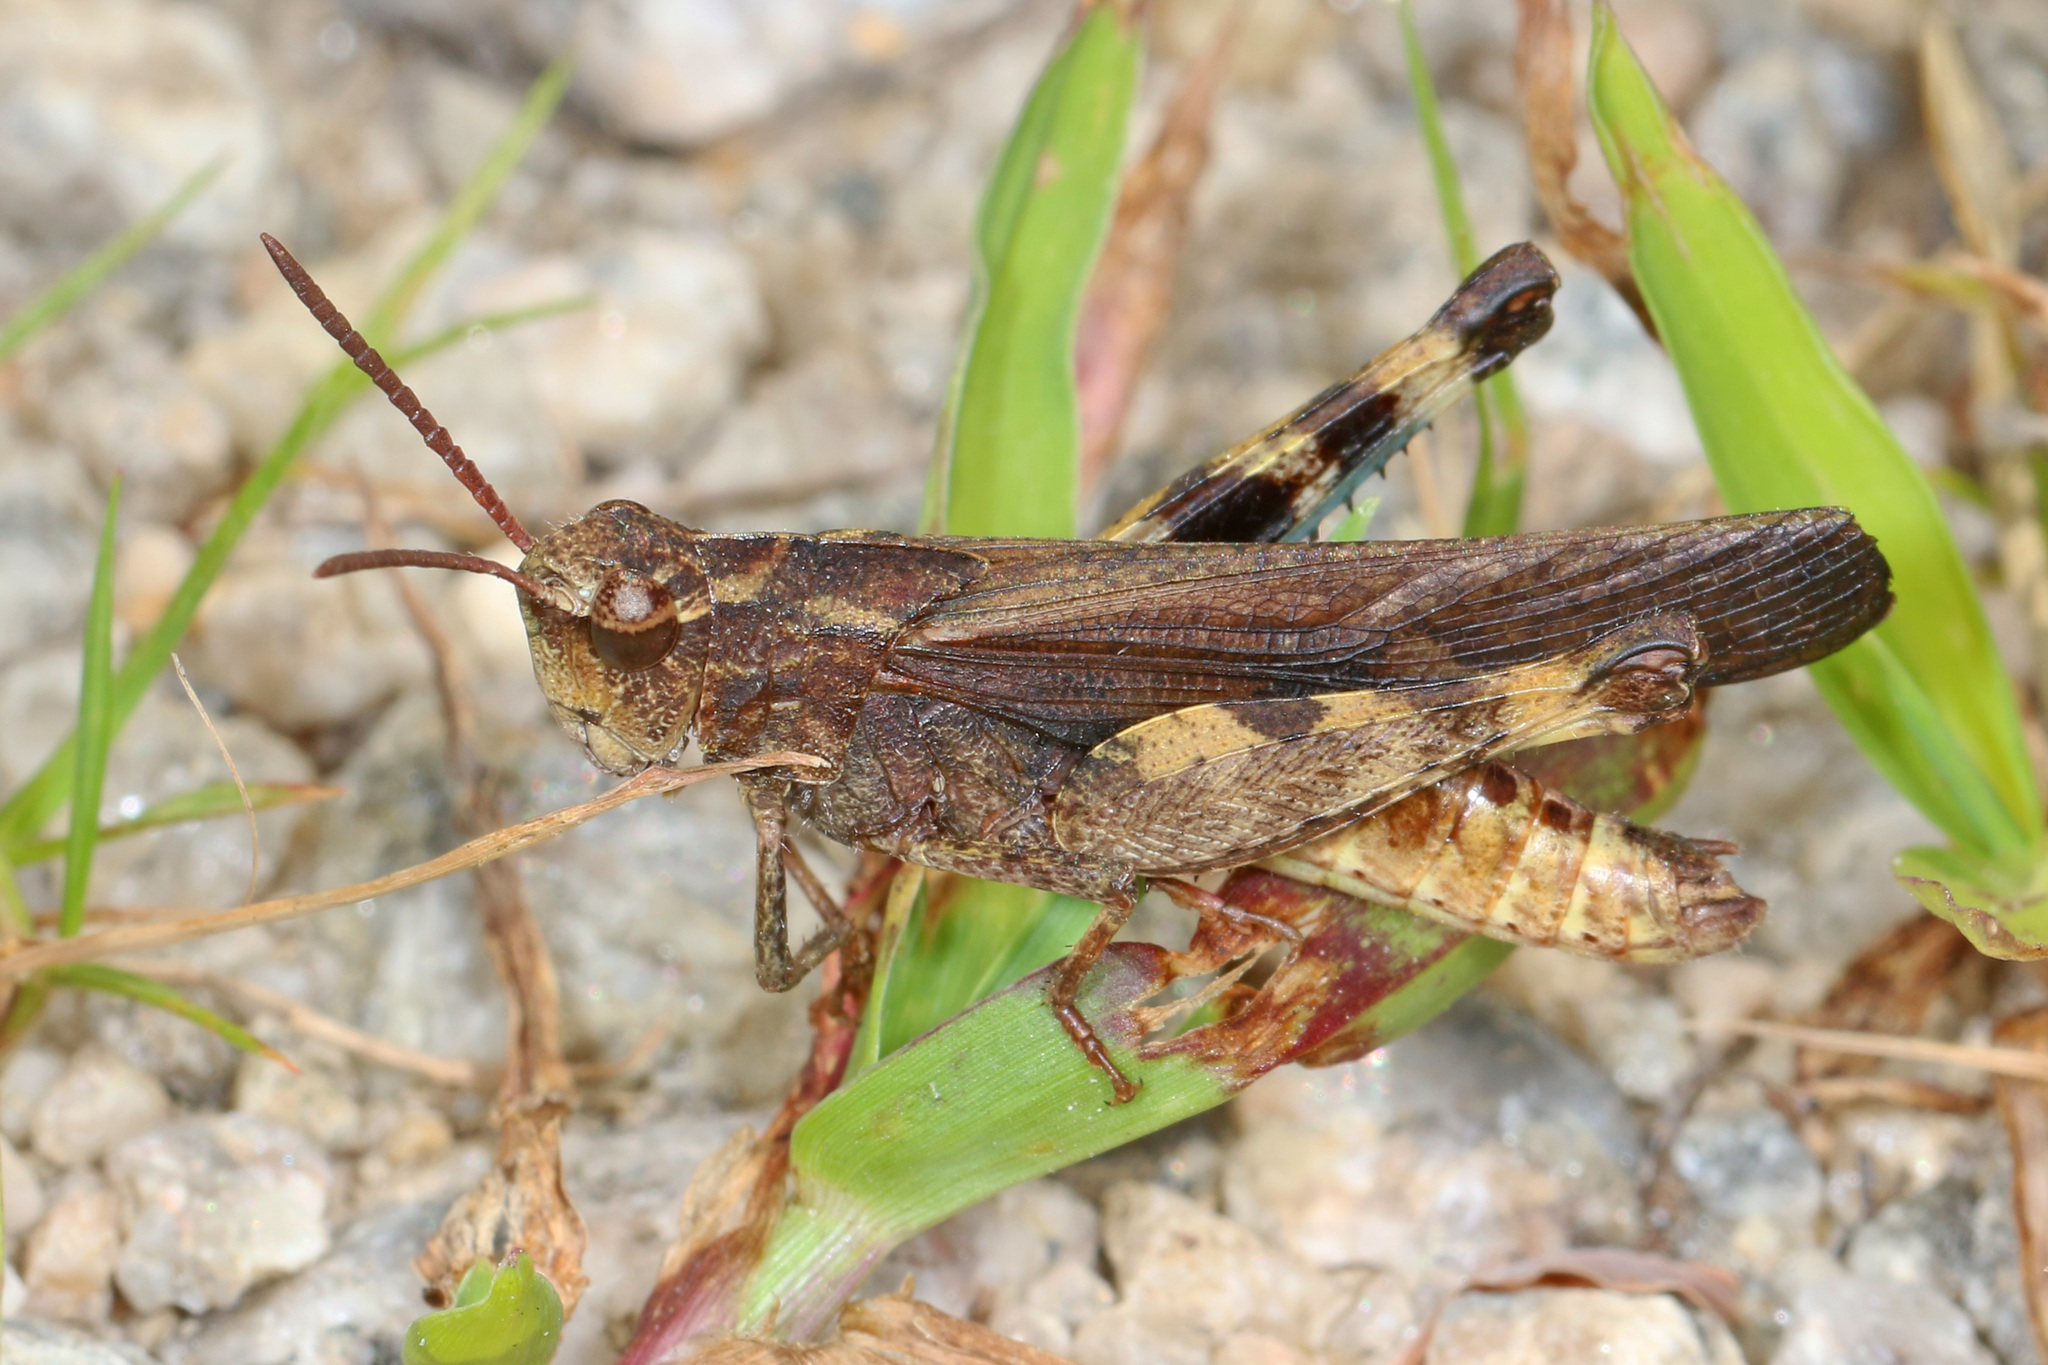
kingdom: Animalia
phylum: Arthropoda
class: Insecta
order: Orthoptera
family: Acrididae
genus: Chortophaga
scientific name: Chortophaga viridifasciata
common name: Green-striped grasshopper
